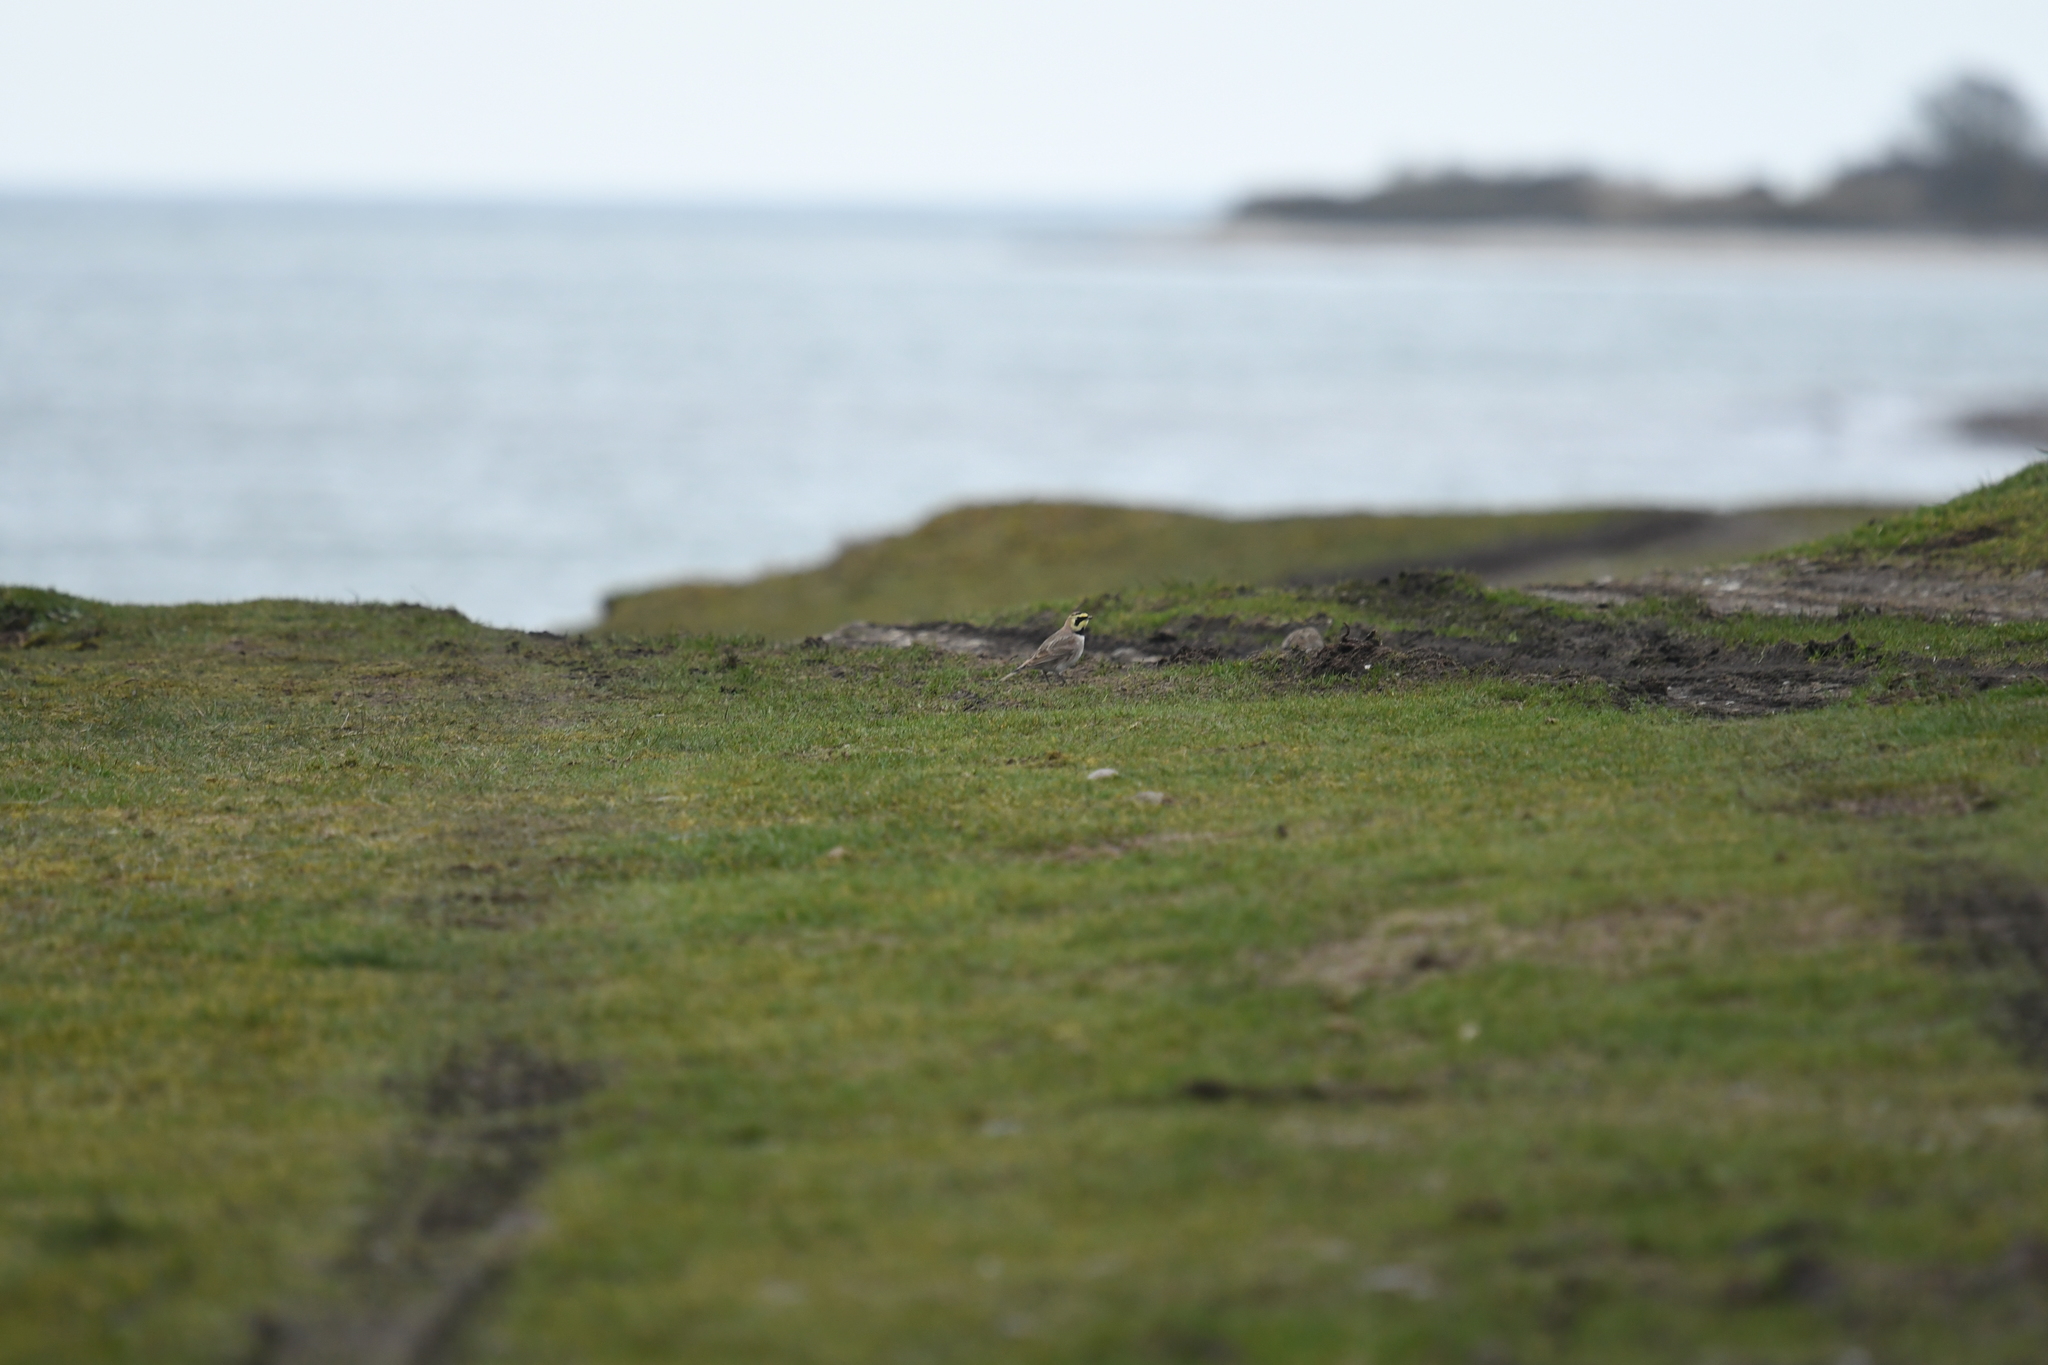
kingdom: Animalia
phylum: Chordata
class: Aves
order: Passeriformes
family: Alaudidae
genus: Eremophila
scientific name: Eremophila alpestris
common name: Horned lark
